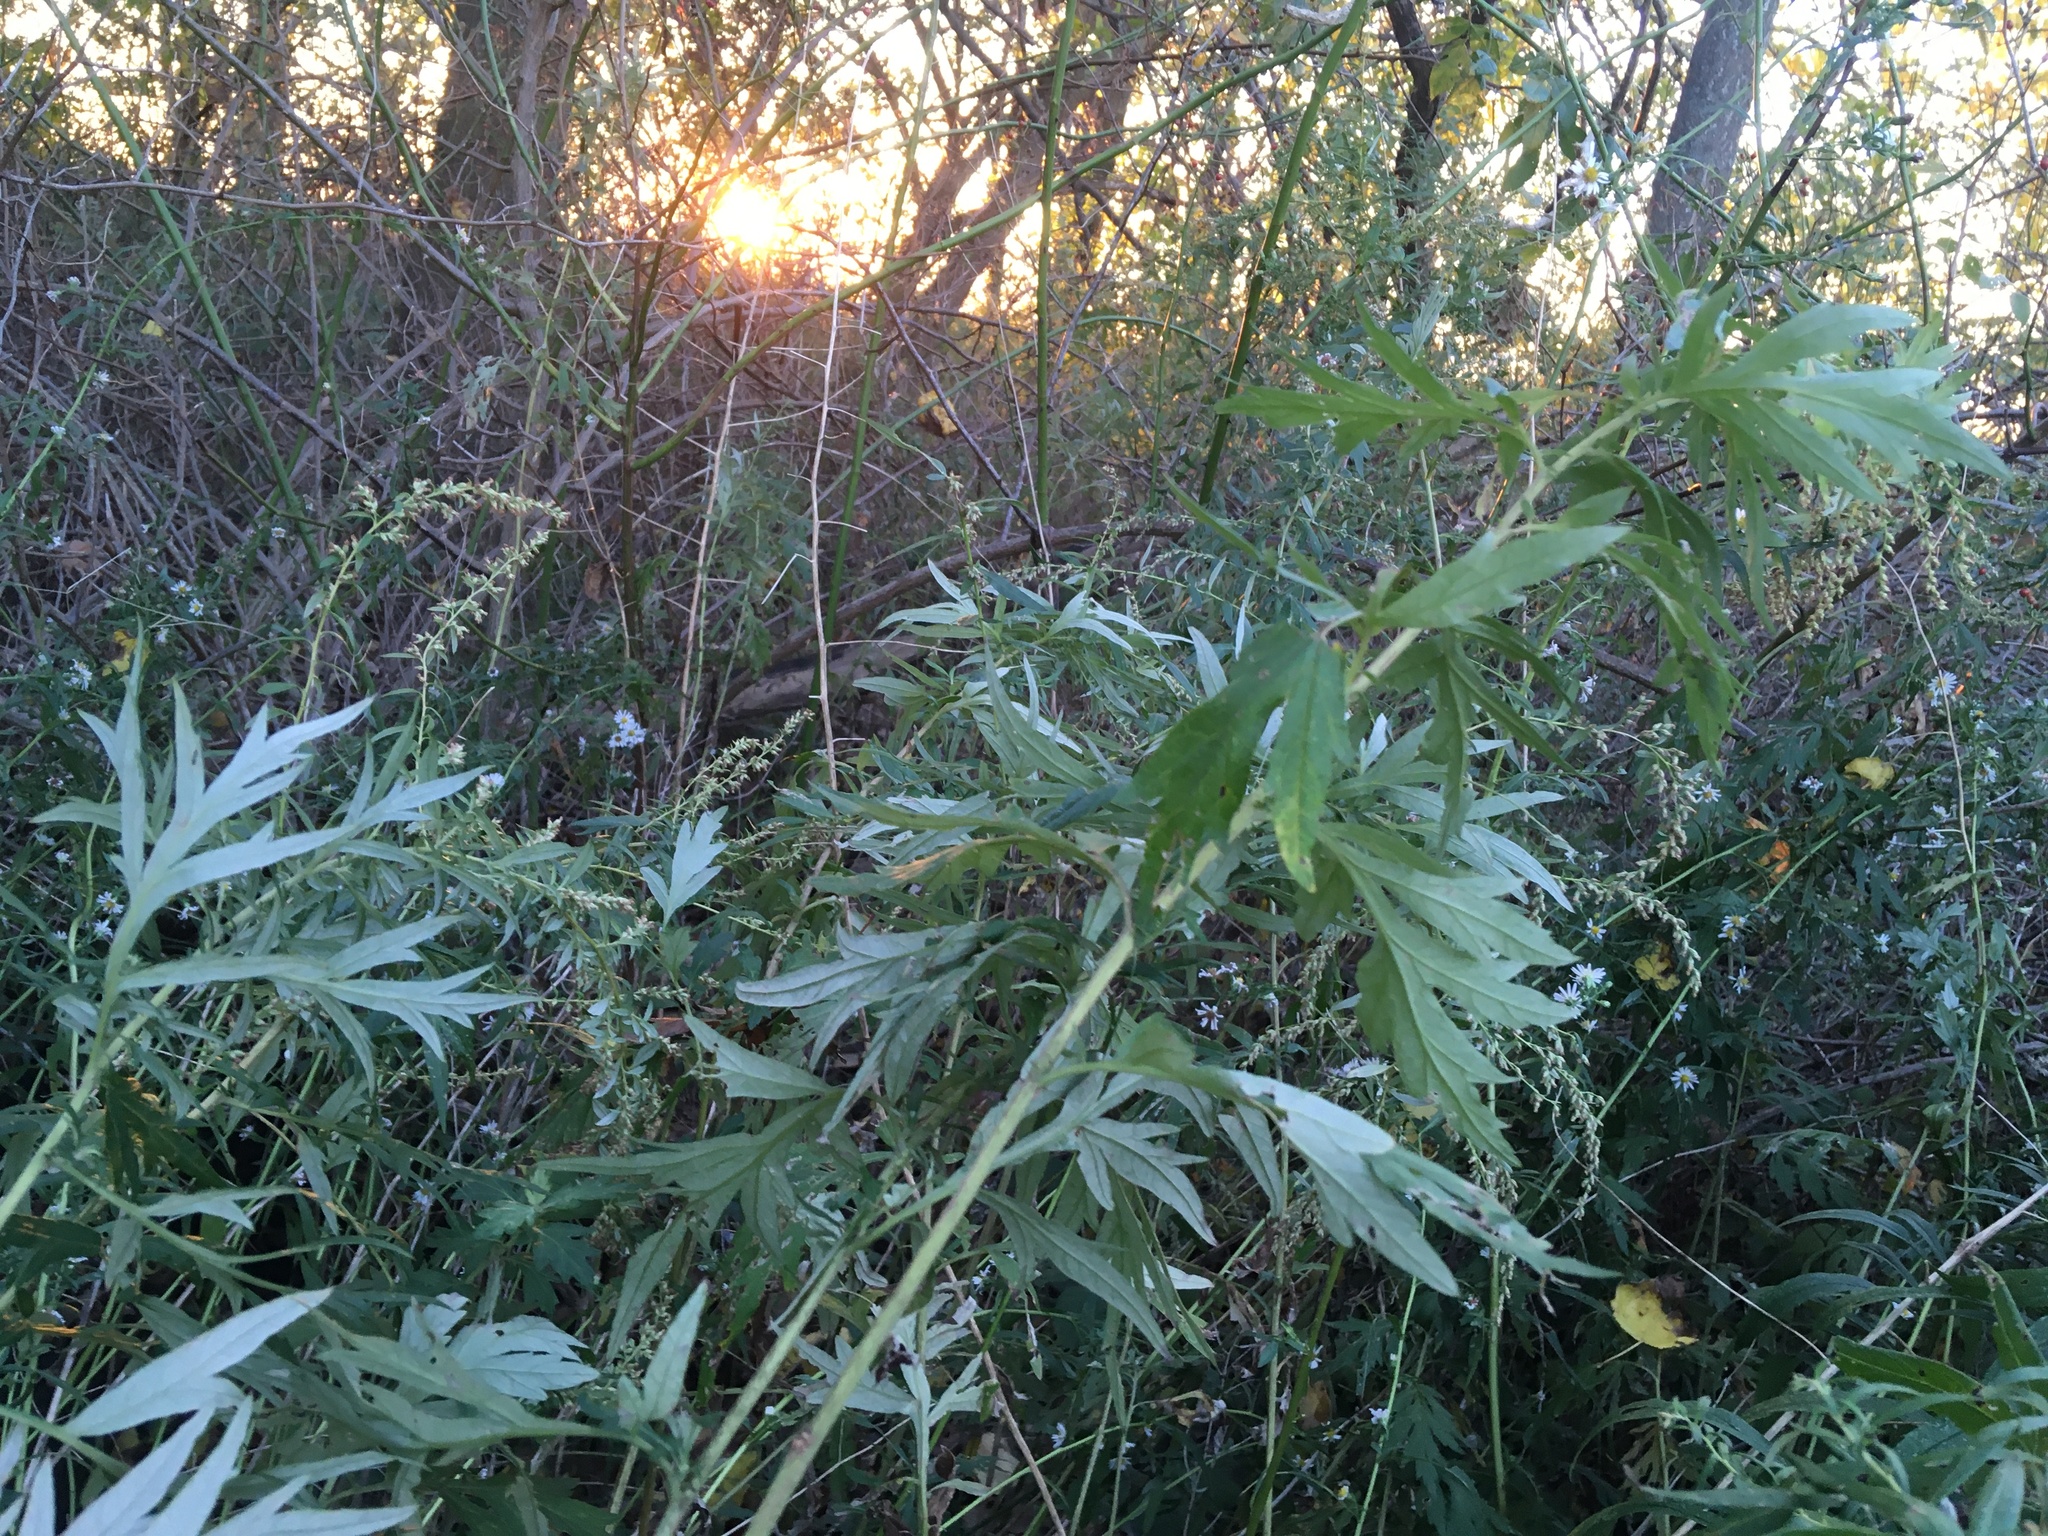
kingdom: Plantae
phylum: Tracheophyta
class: Magnoliopsida
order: Asterales
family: Asteraceae
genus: Artemisia
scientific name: Artemisia vulgaris
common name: Mugwort
